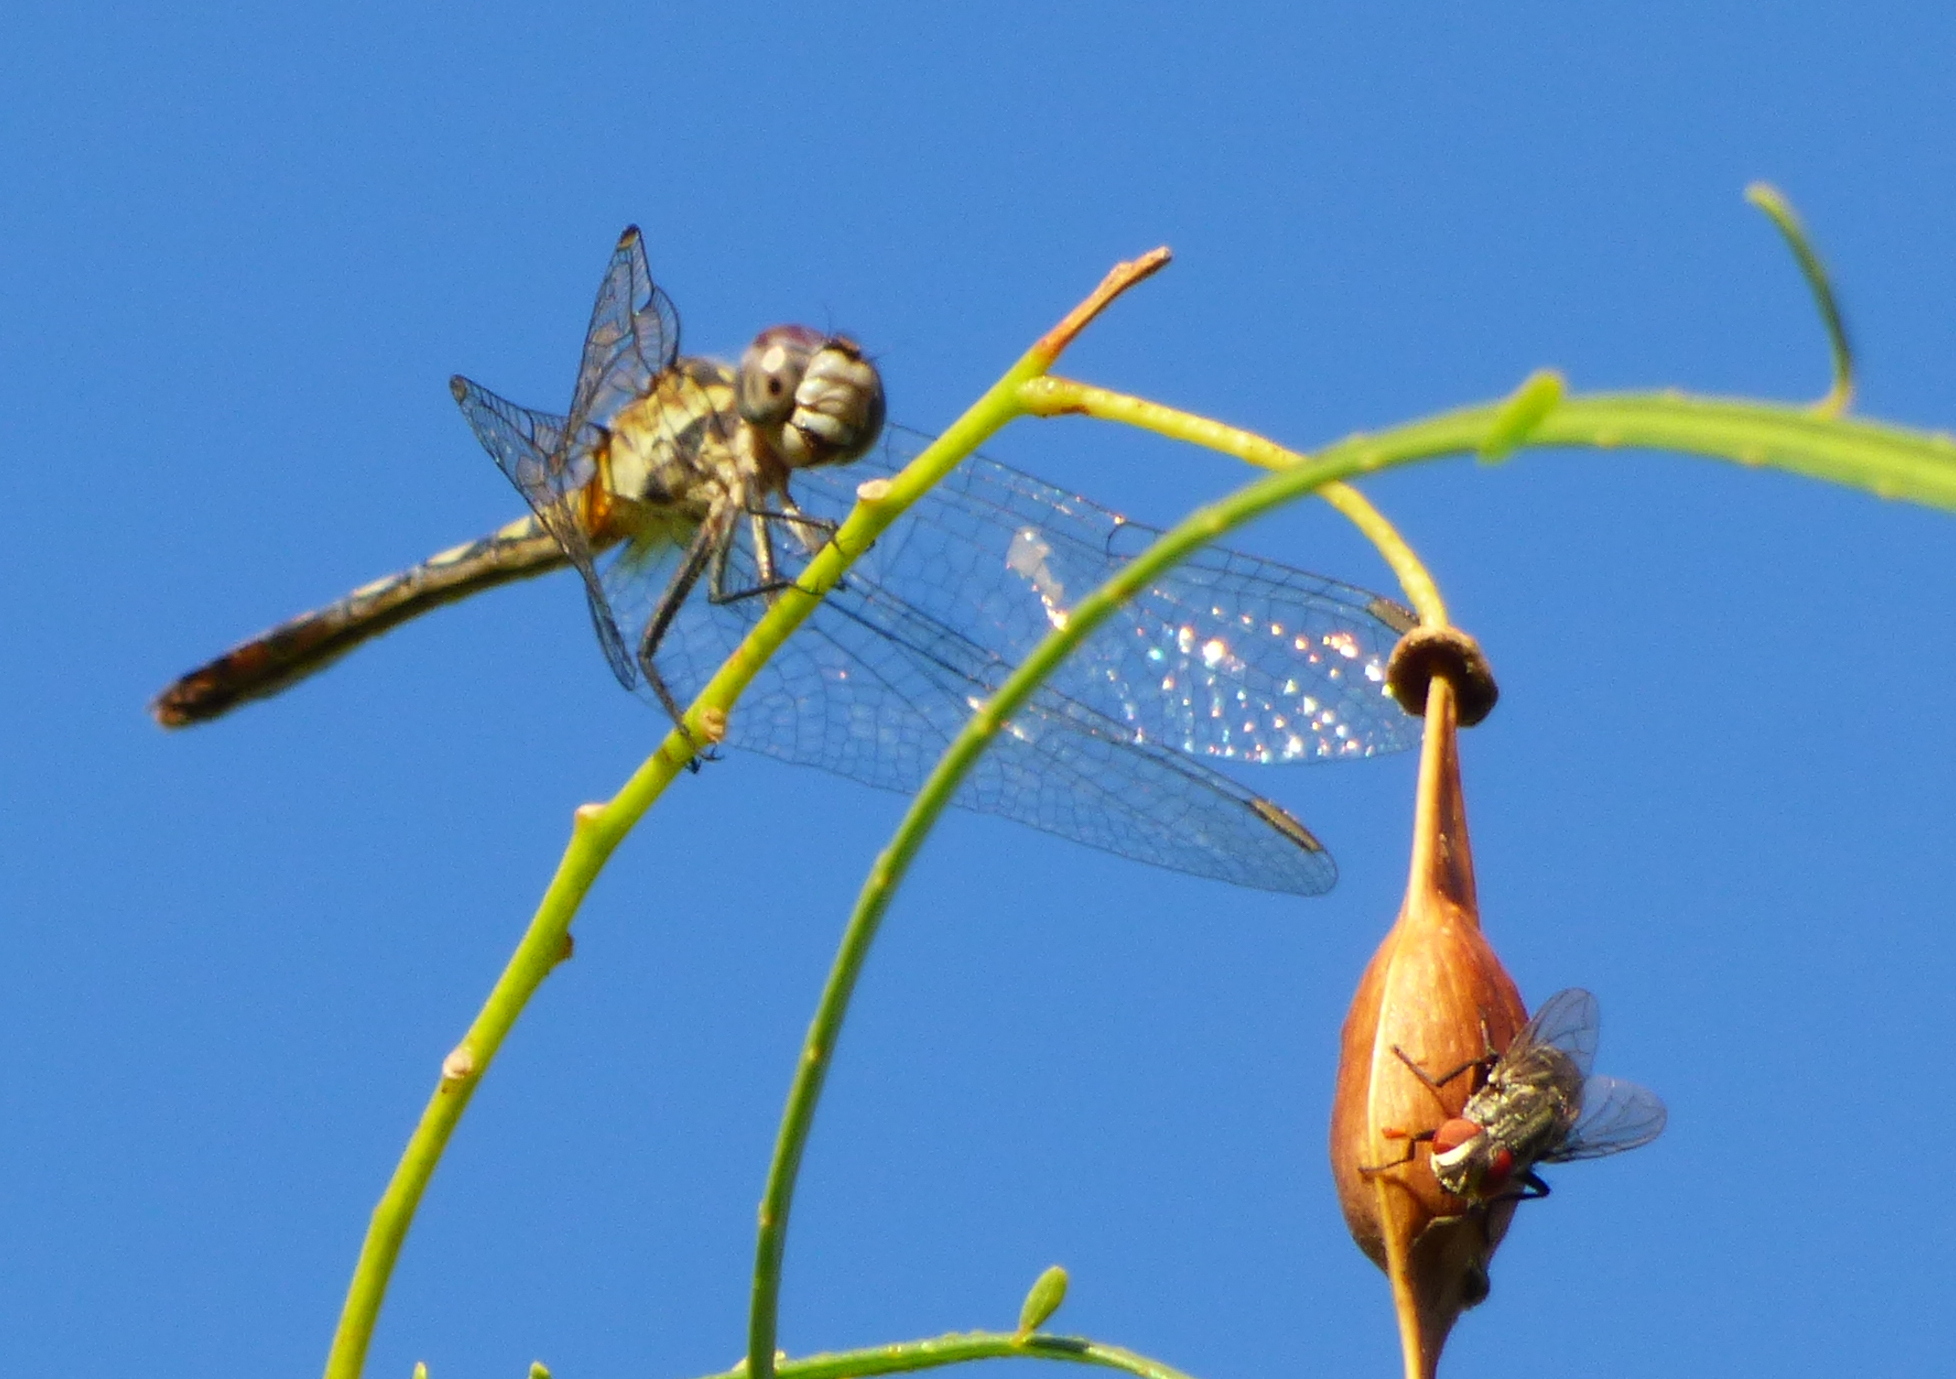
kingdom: Animalia
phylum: Arthropoda
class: Insecta
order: Odonata
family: Libellulidae
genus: Micrathyria
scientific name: Micrathyria longifasciata
